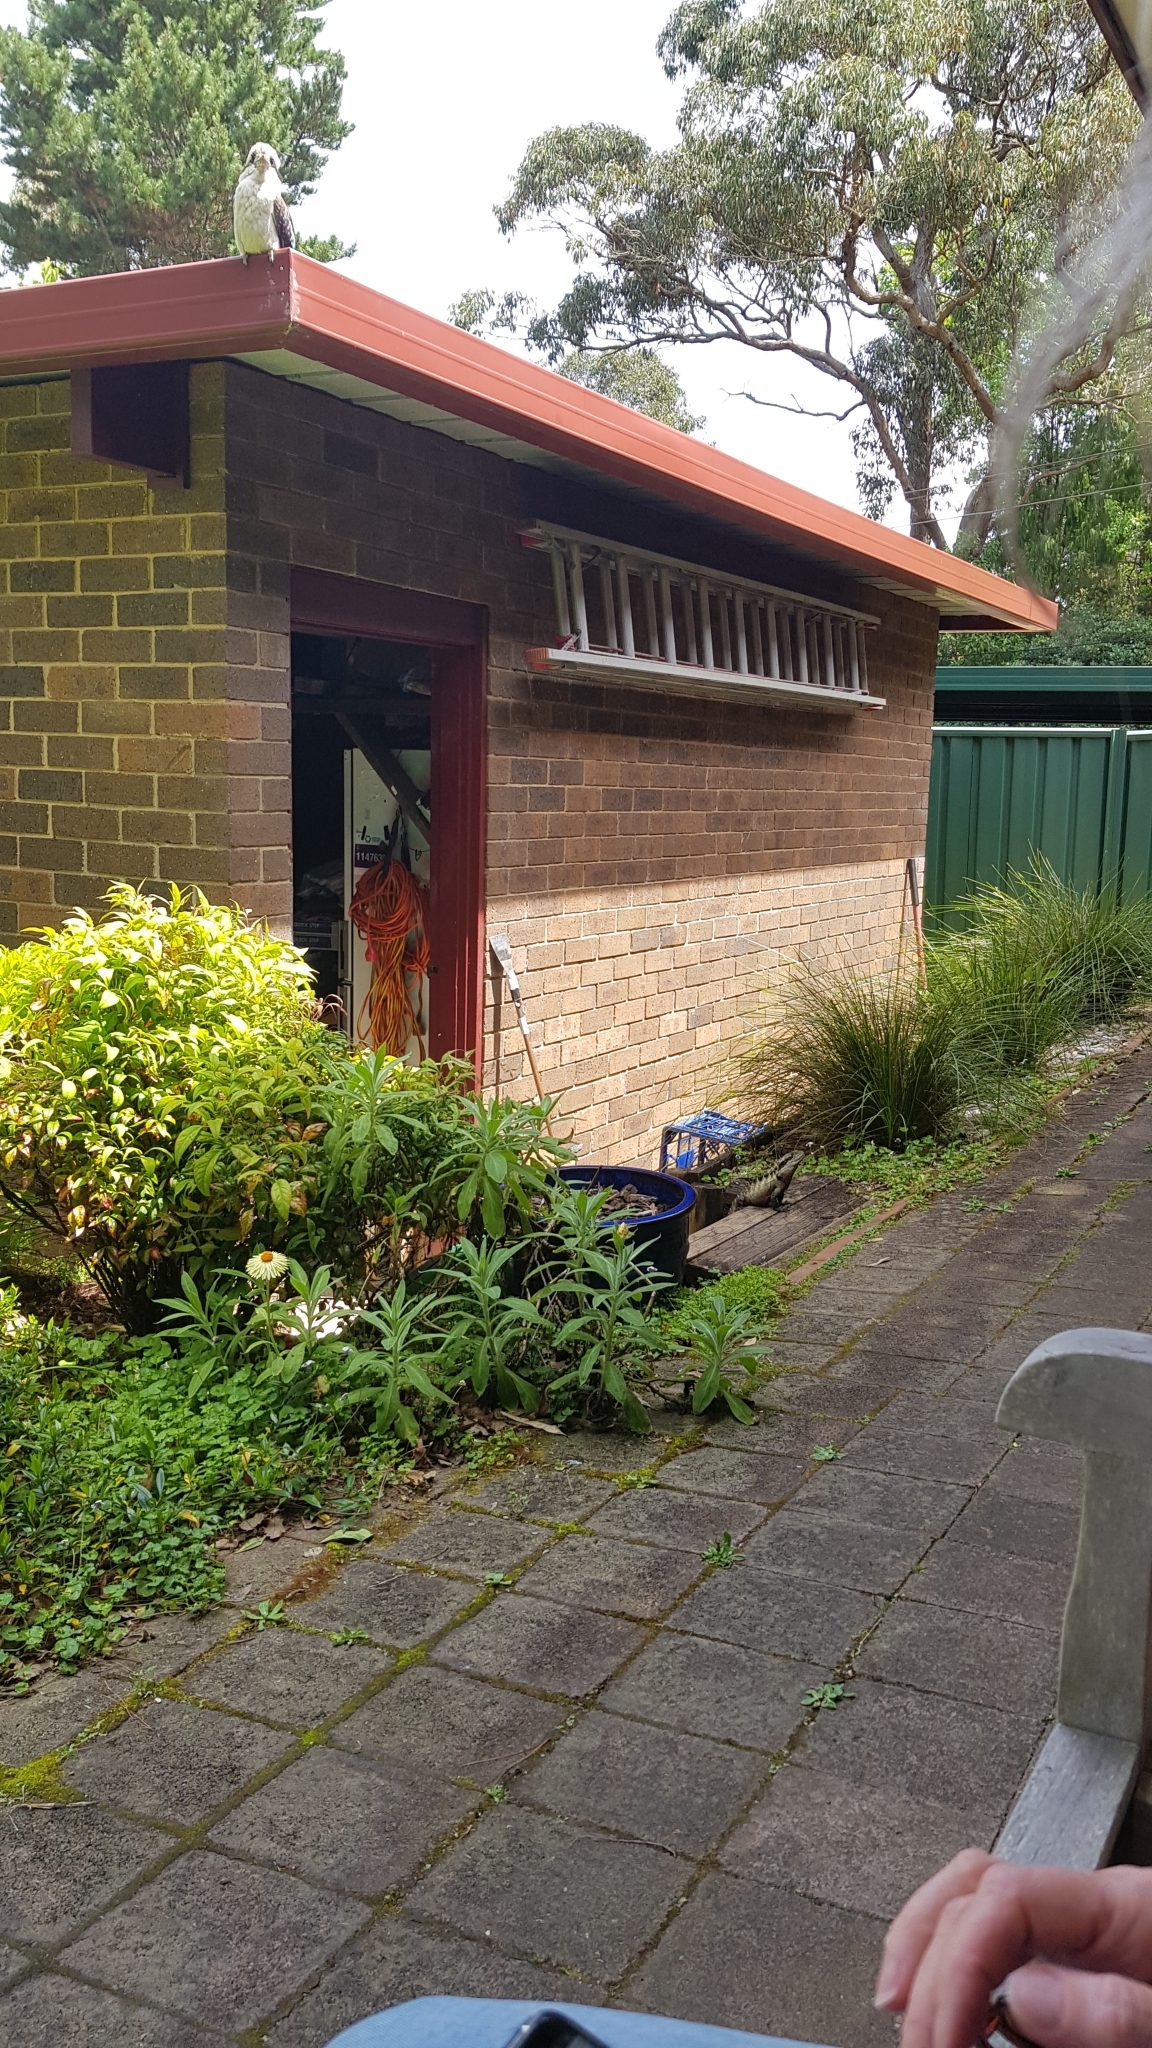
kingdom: Animalia
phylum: Chordata
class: Aves
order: Coraciiformes
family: Alcedinidae
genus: Dacelo
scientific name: Dacelo novaeguineae
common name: Laughing kookaburra
